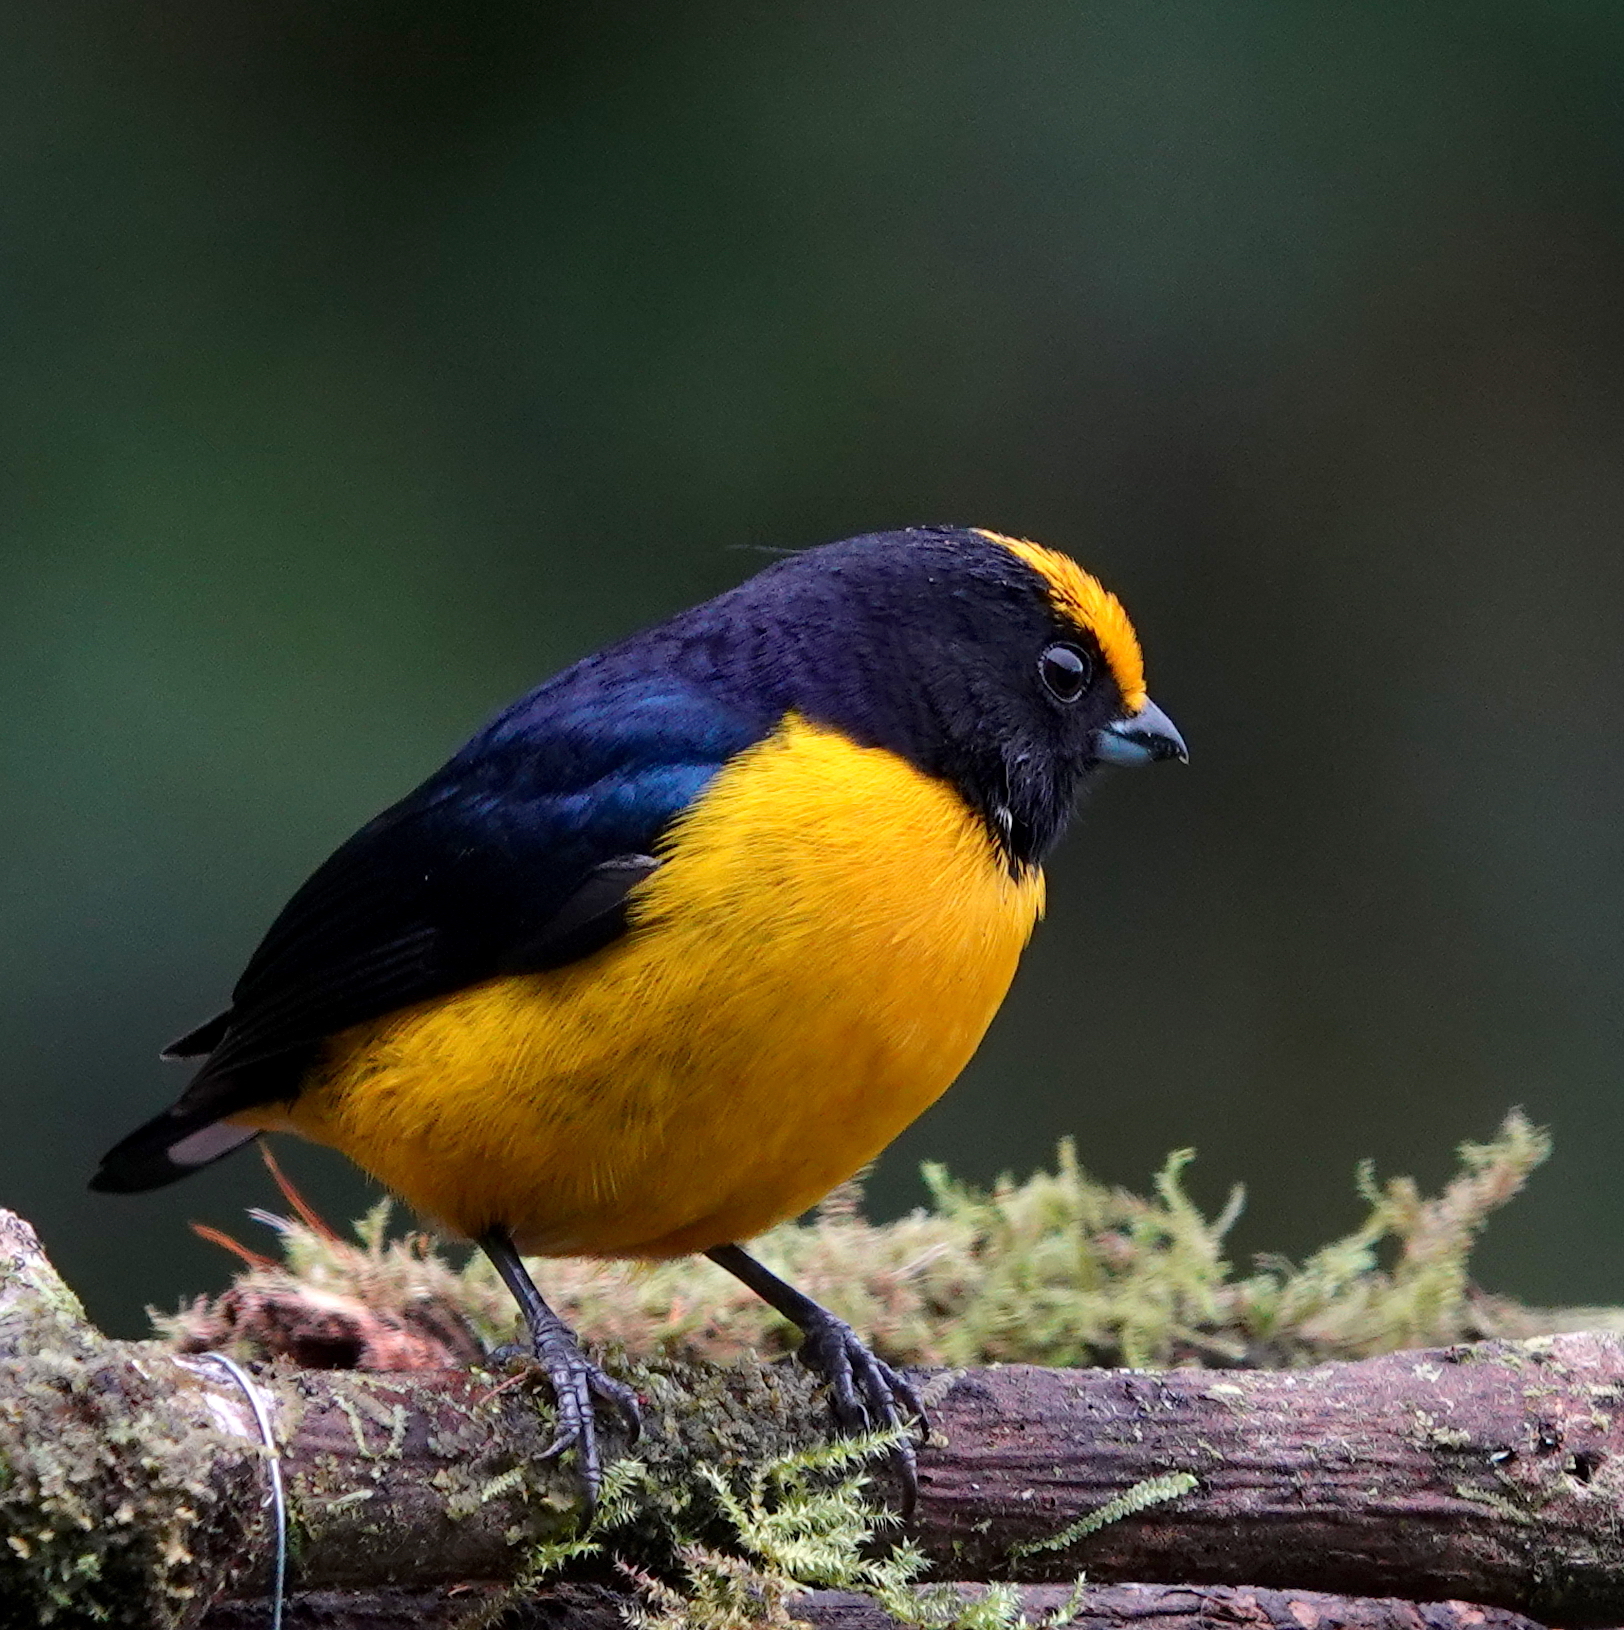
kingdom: Animalia
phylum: Chordata
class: Aves
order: Passeriformes
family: Fringillidae
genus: Euphonia
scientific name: Euphonia xanthogaster
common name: Orange-bellied euphonia
